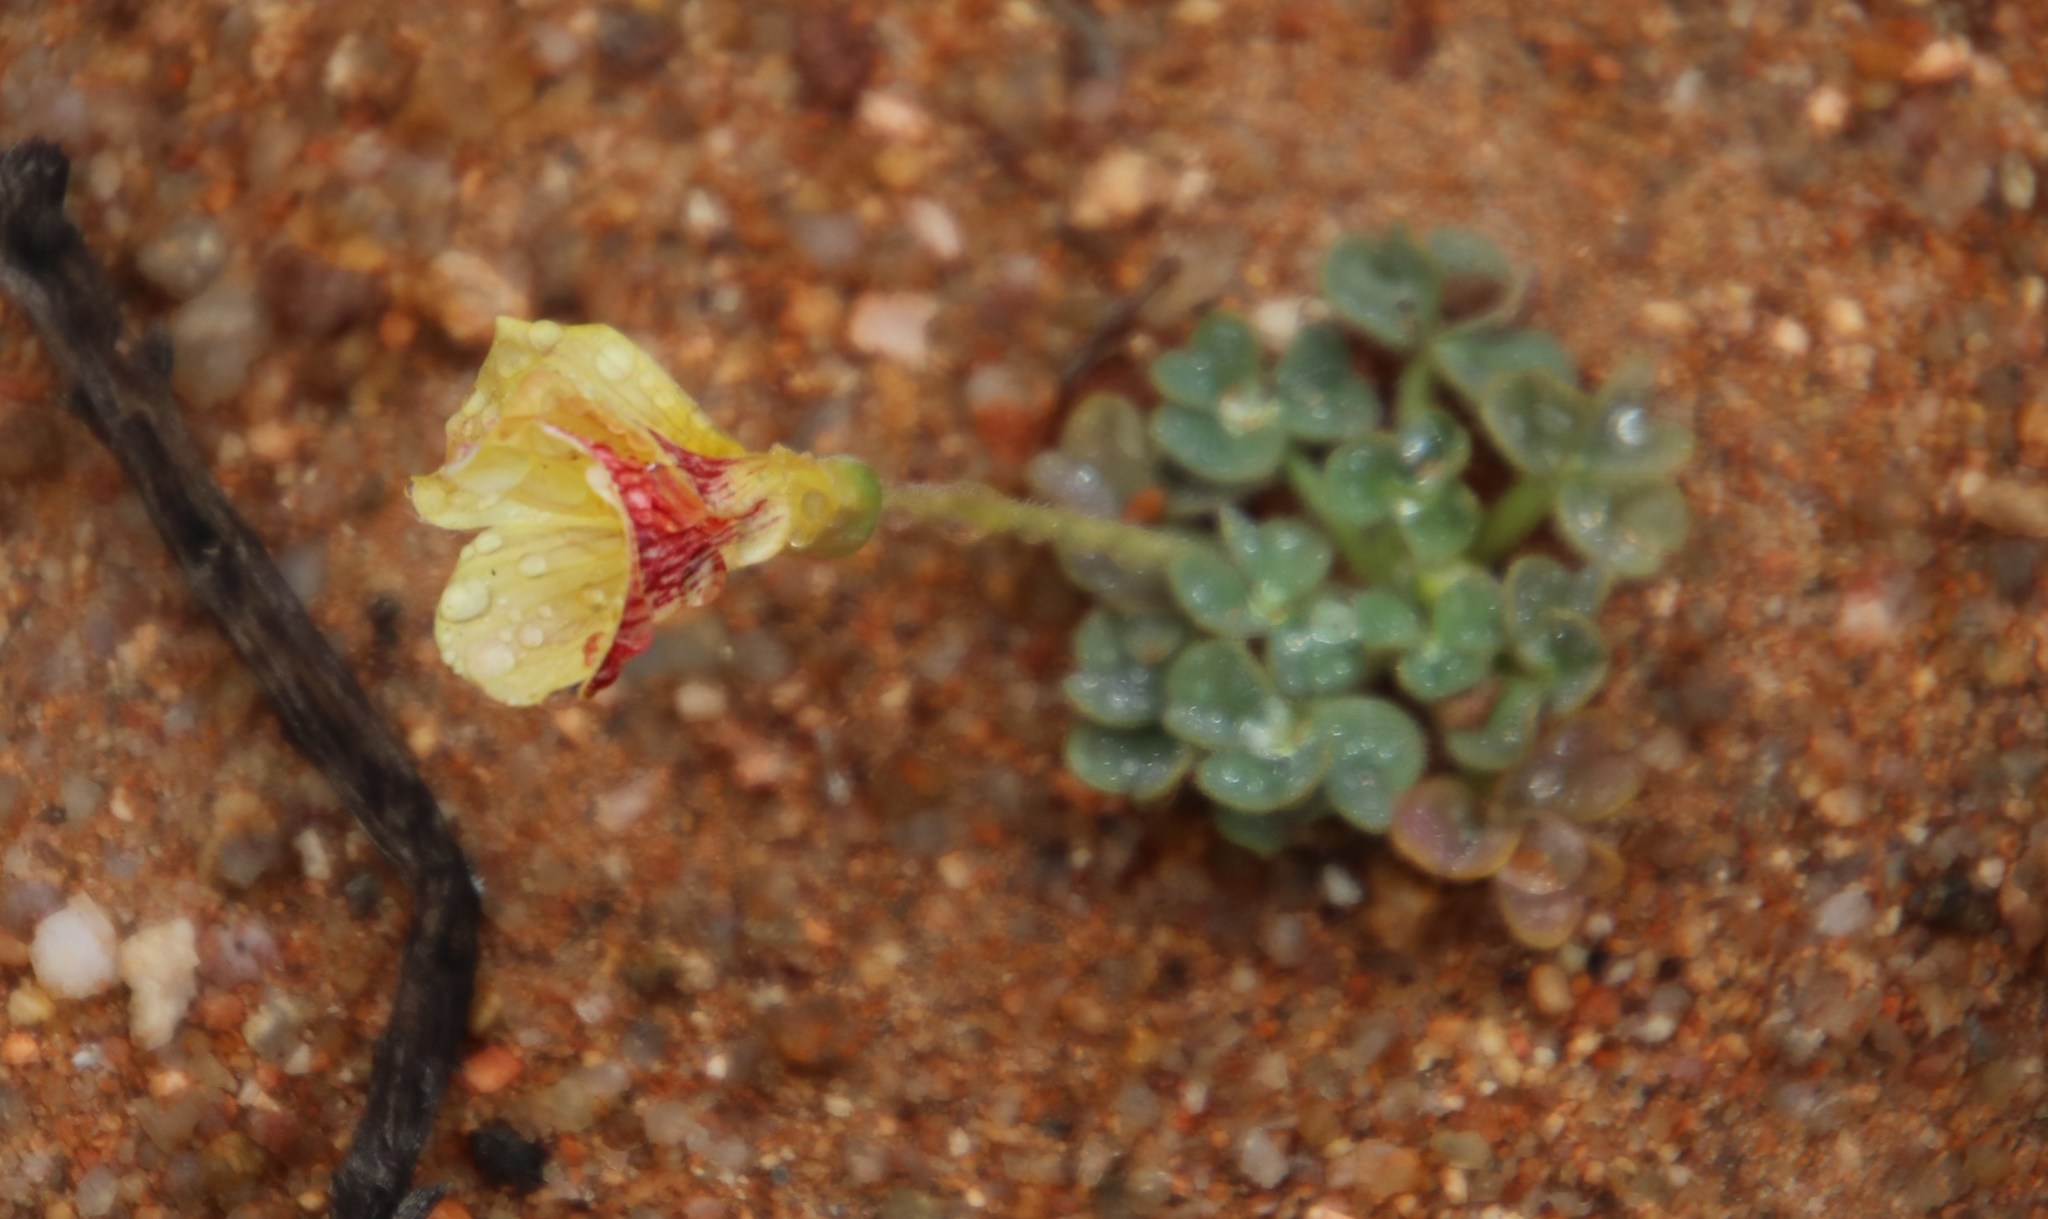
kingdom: Plantae
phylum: Tracheophyta
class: Magnoliopsida
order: Oxalidales
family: Oxalidaceae
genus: Oxalis
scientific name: Oxalis obtusa
